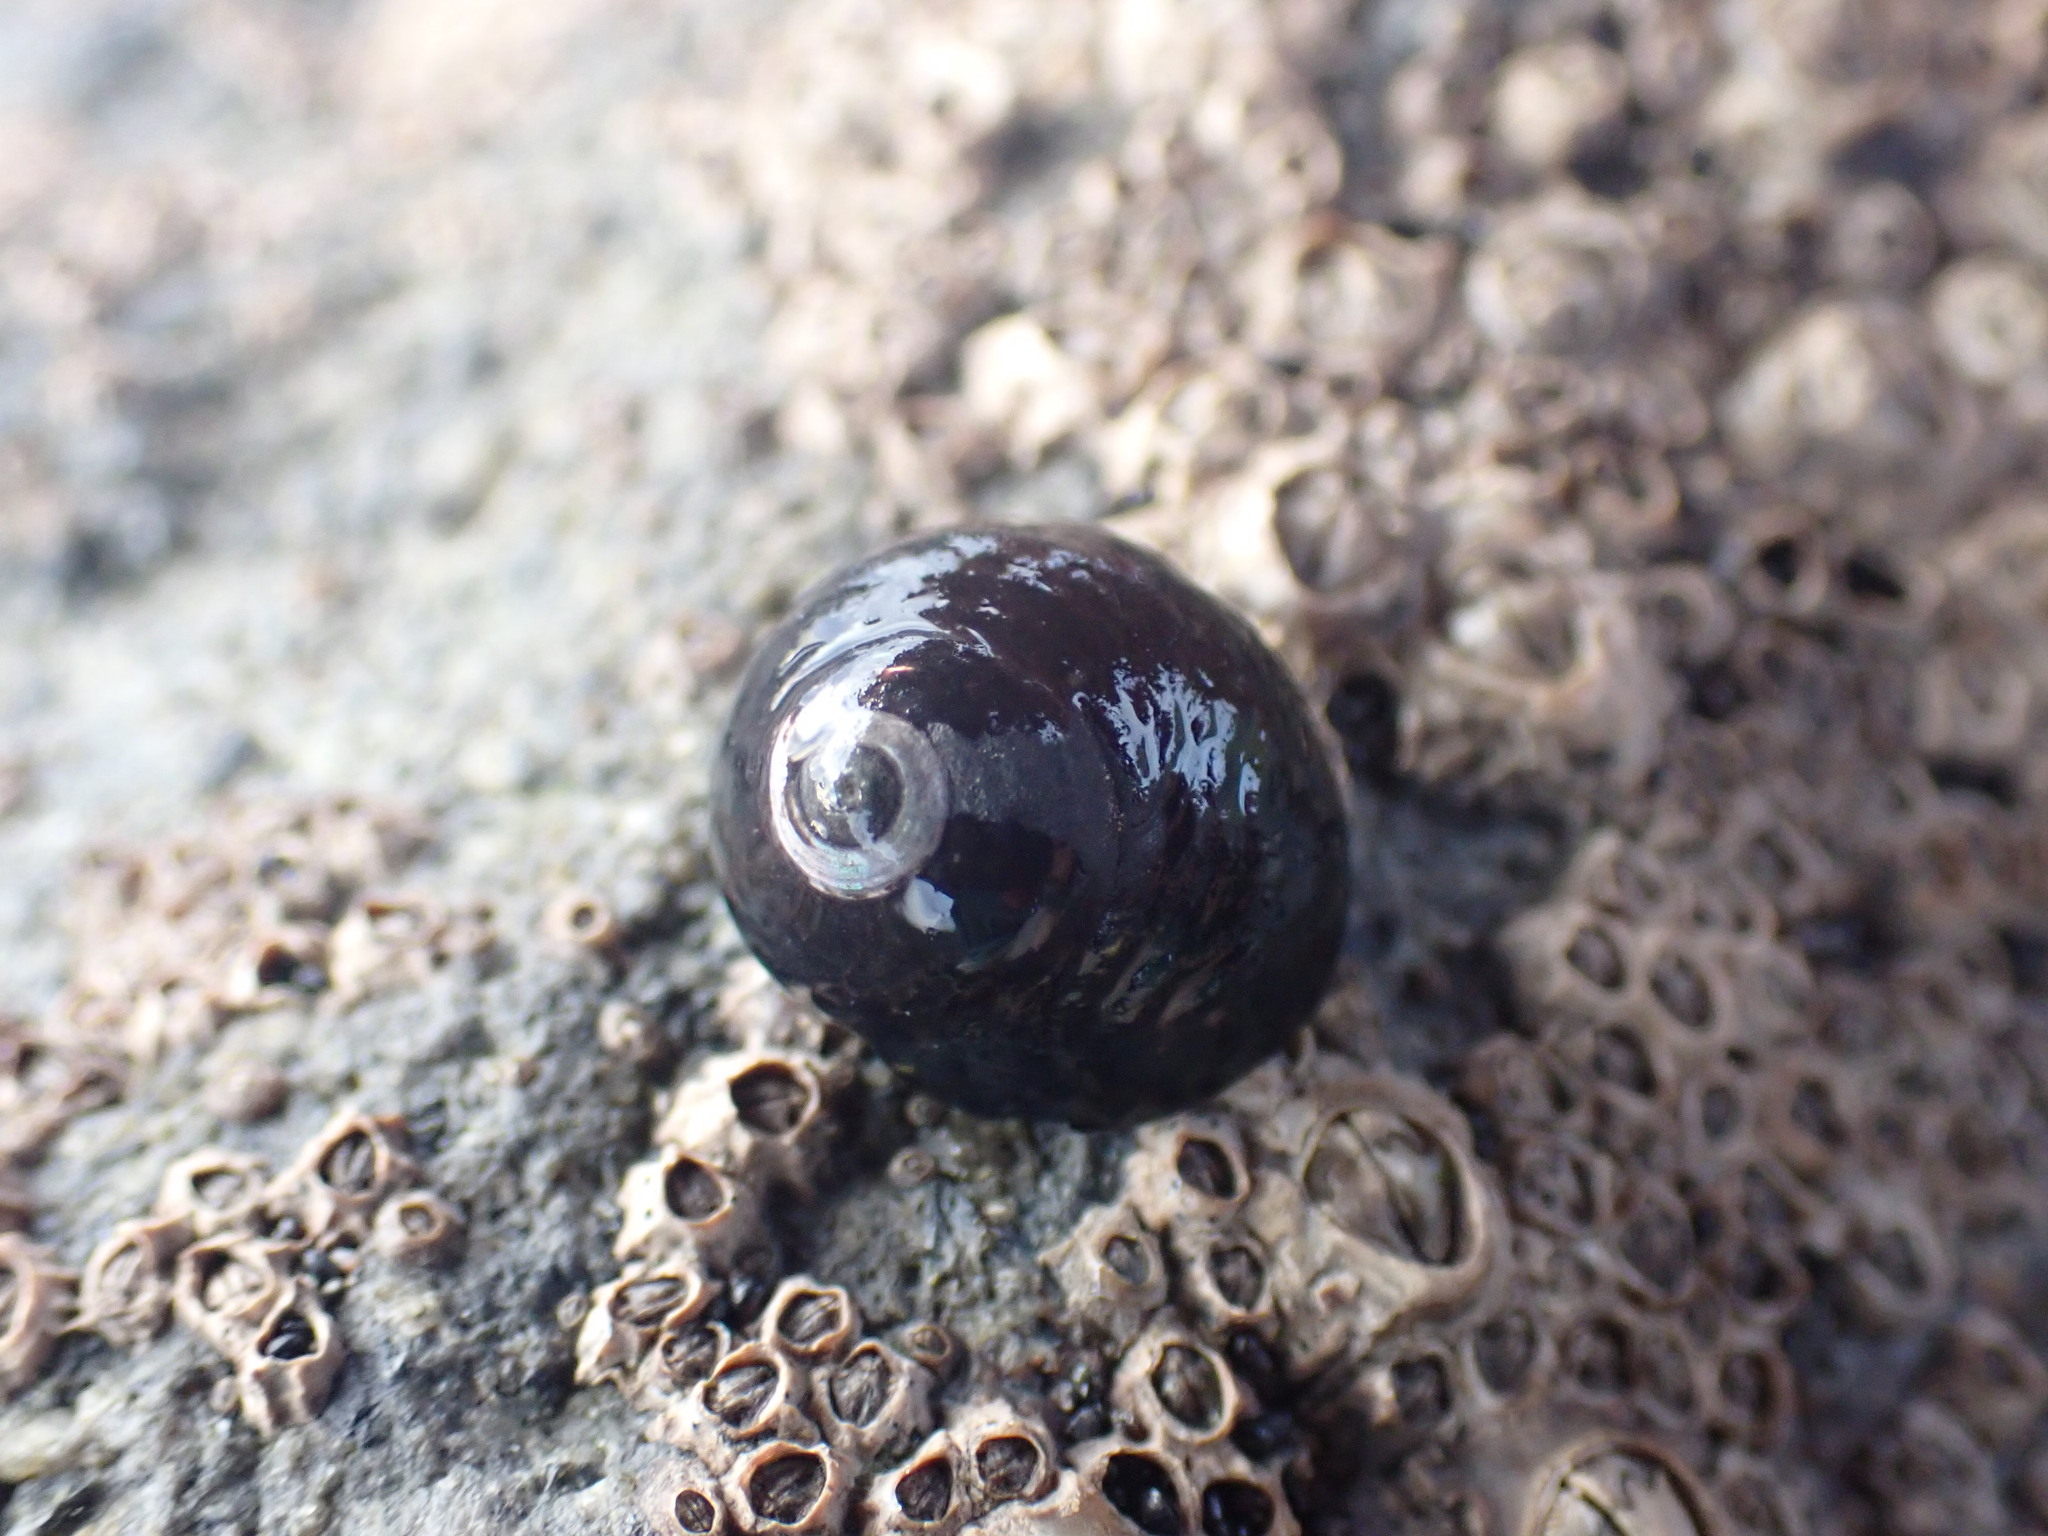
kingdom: Animalia
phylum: Mollusca
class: Gastropoda
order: Trochida
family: Trochidae
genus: Diloma
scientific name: Diloma aridum
